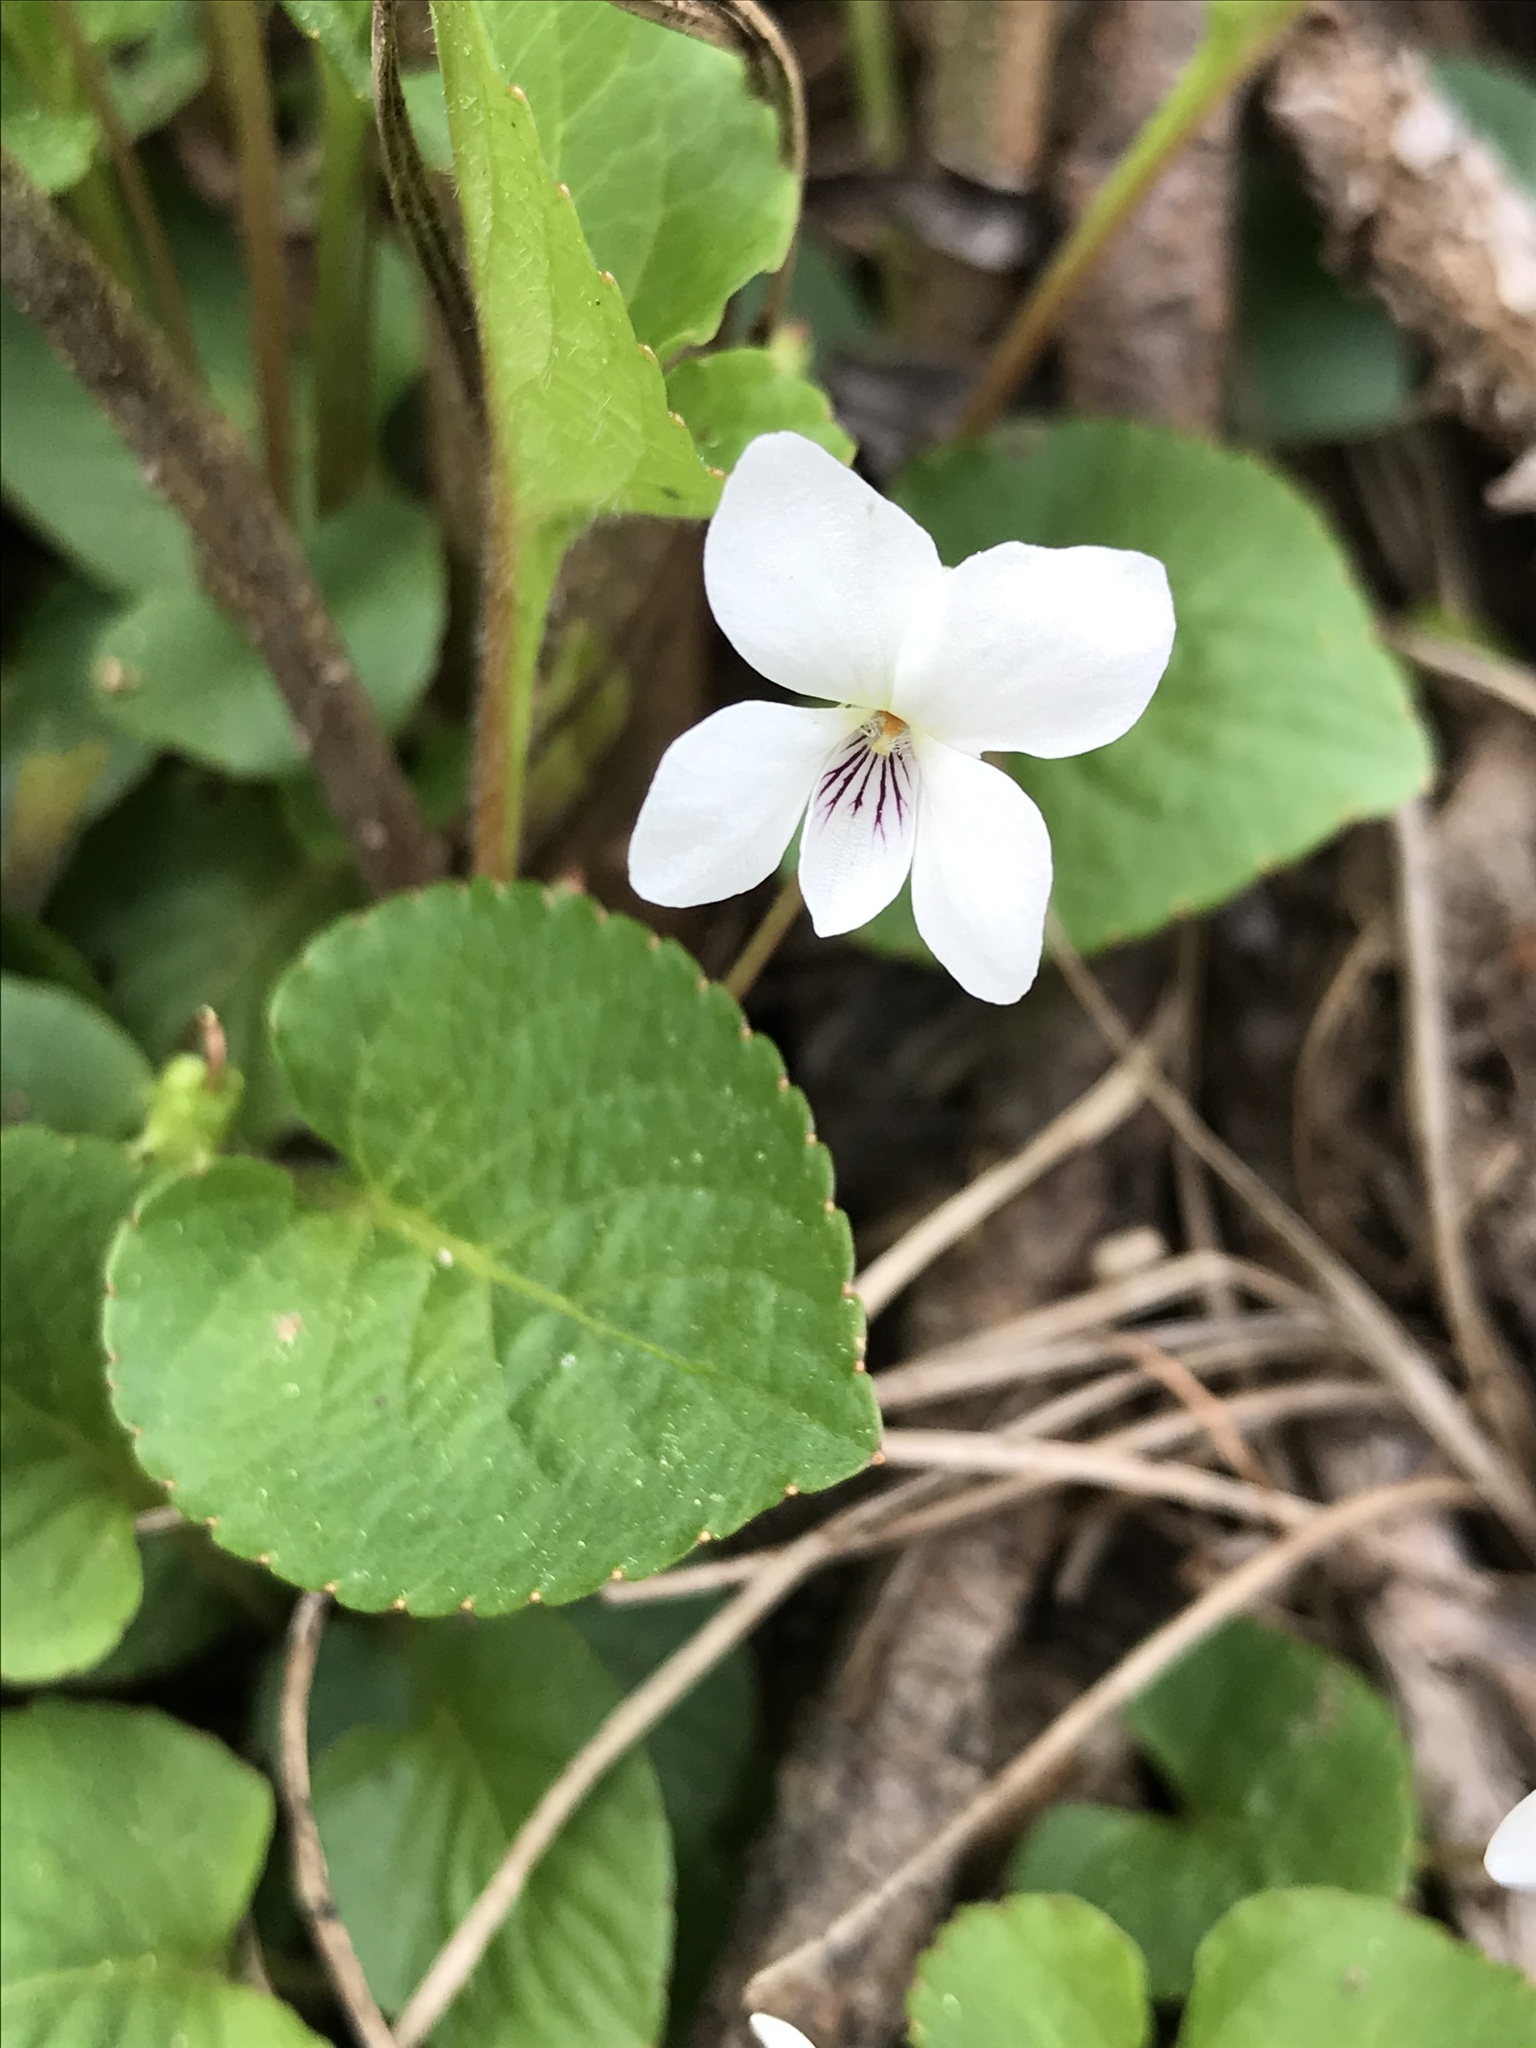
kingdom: Plantae
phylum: Tracheophyta
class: Magnoliopsida
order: Malpighiales
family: Violaceae
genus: Viola
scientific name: Viola primulifolia
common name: Primrose-leaf violet
